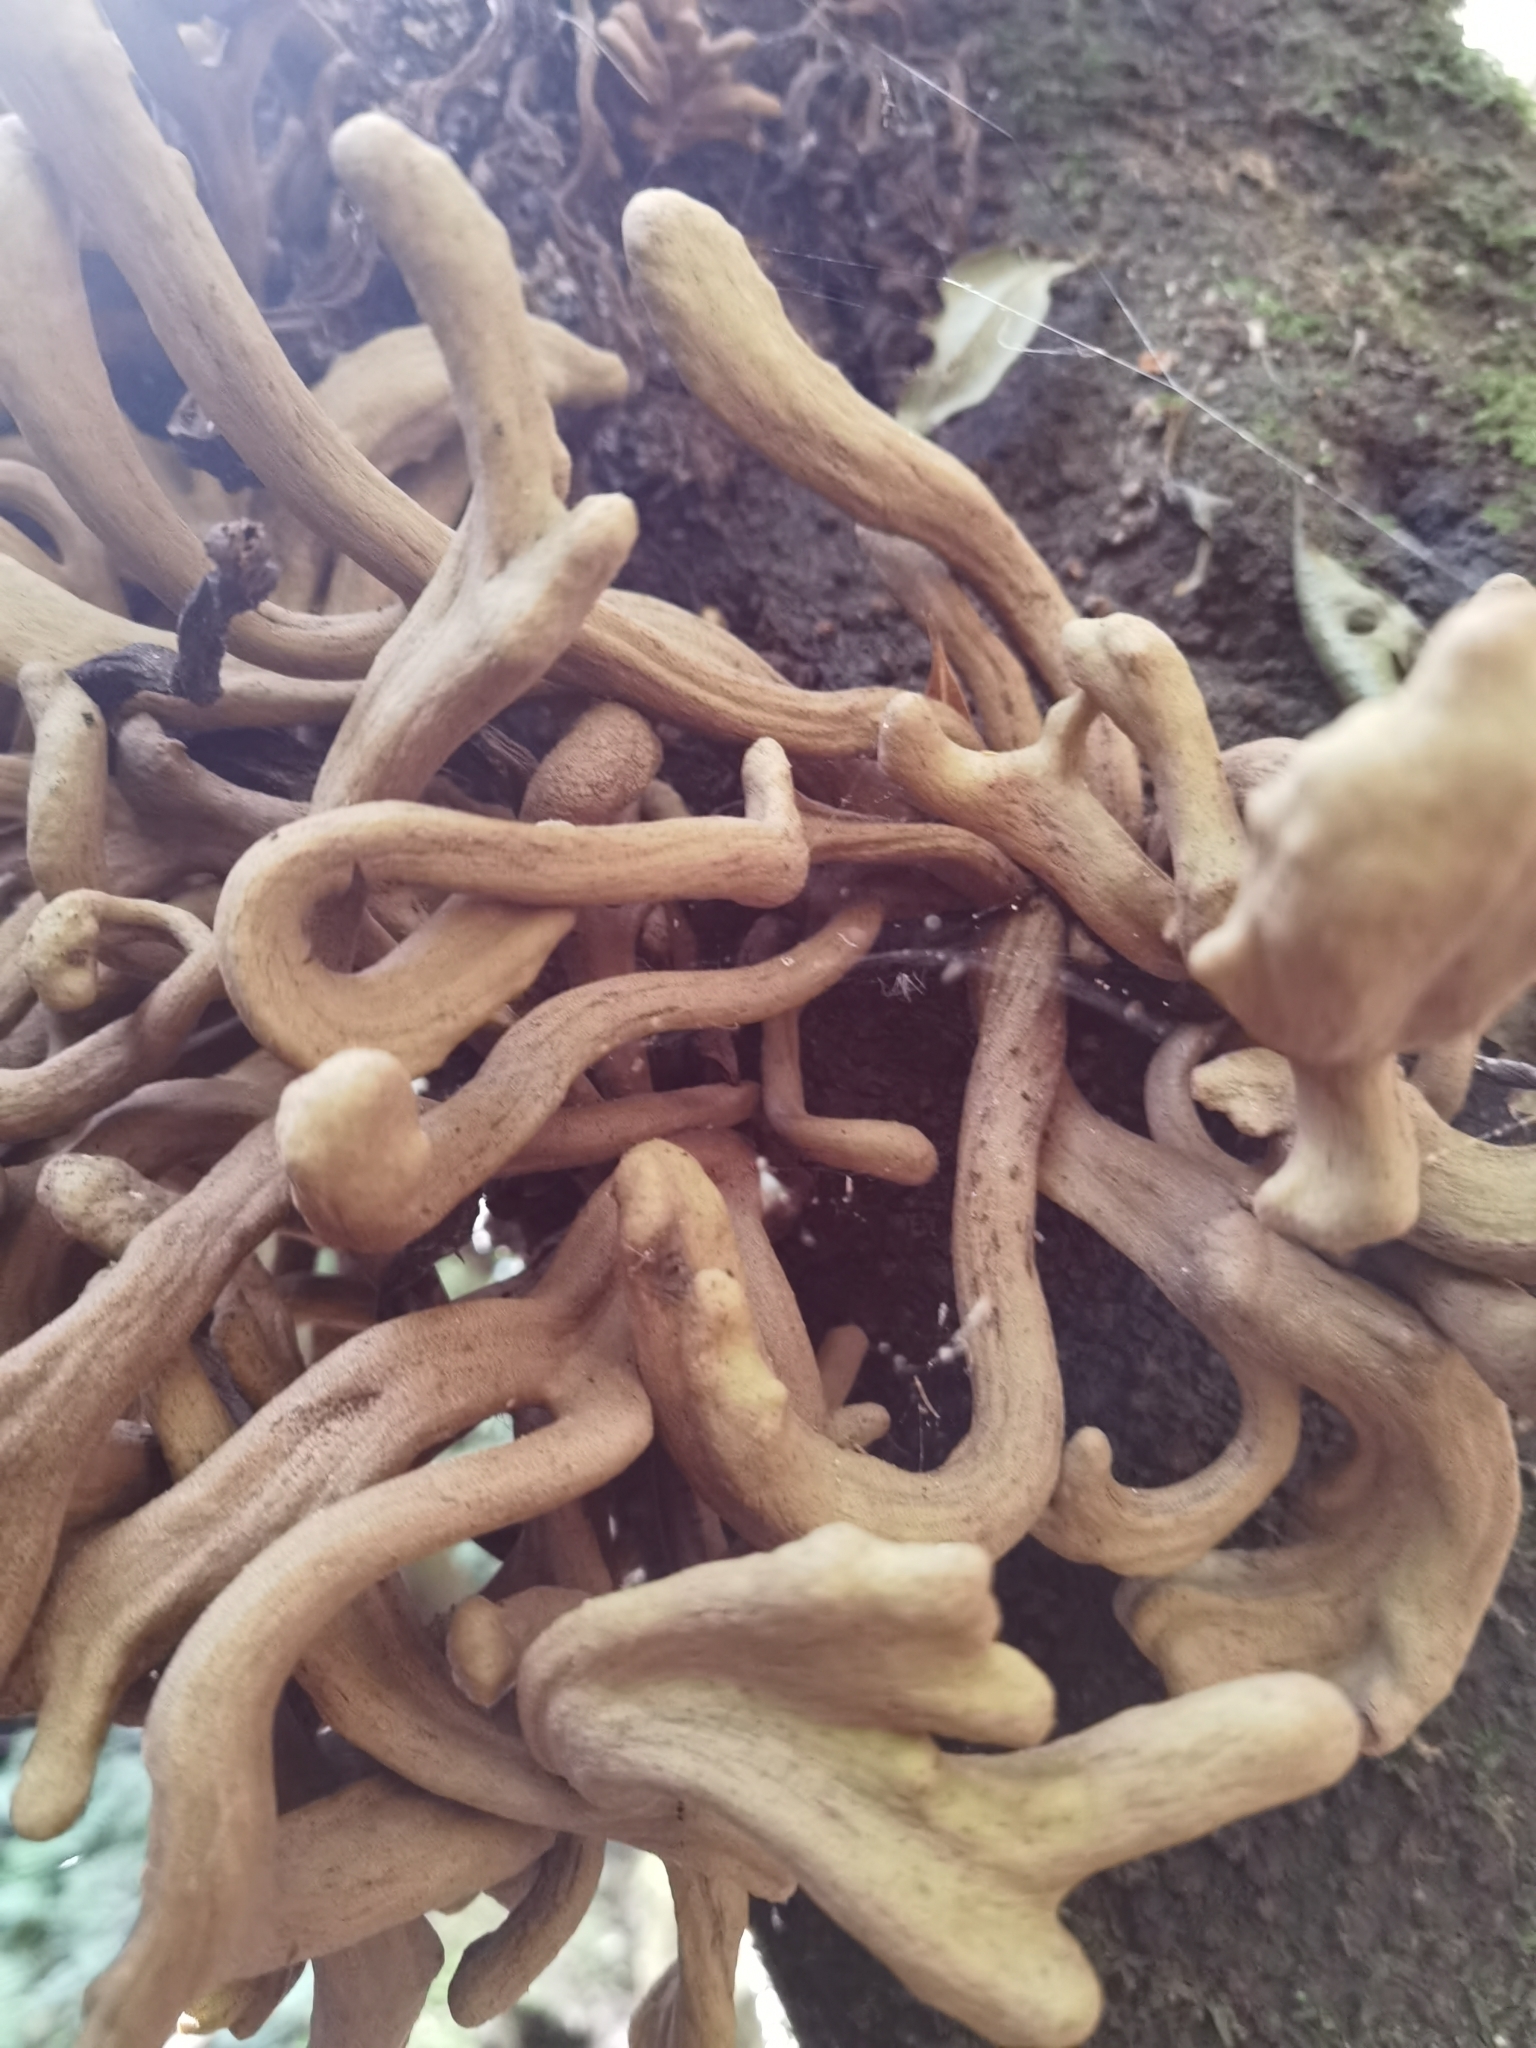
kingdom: Fungi
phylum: Basidiomycota
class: Exobasidiomycetes
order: Exobasidiales
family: Laurobasidiaceae
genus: Laurobasidium
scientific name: Laurobasidium lauri
